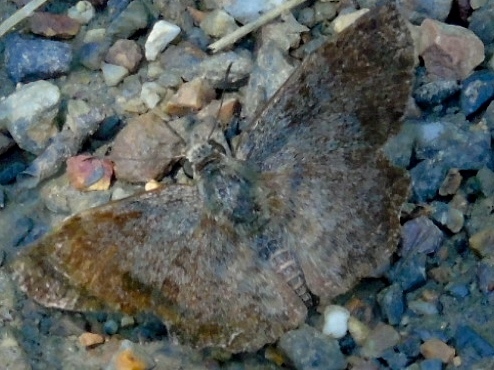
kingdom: Animalia
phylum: Arthropoda
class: Insecta
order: Lepidoptera
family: Hesperiidae
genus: Antigonus
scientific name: Antigonus erosus
